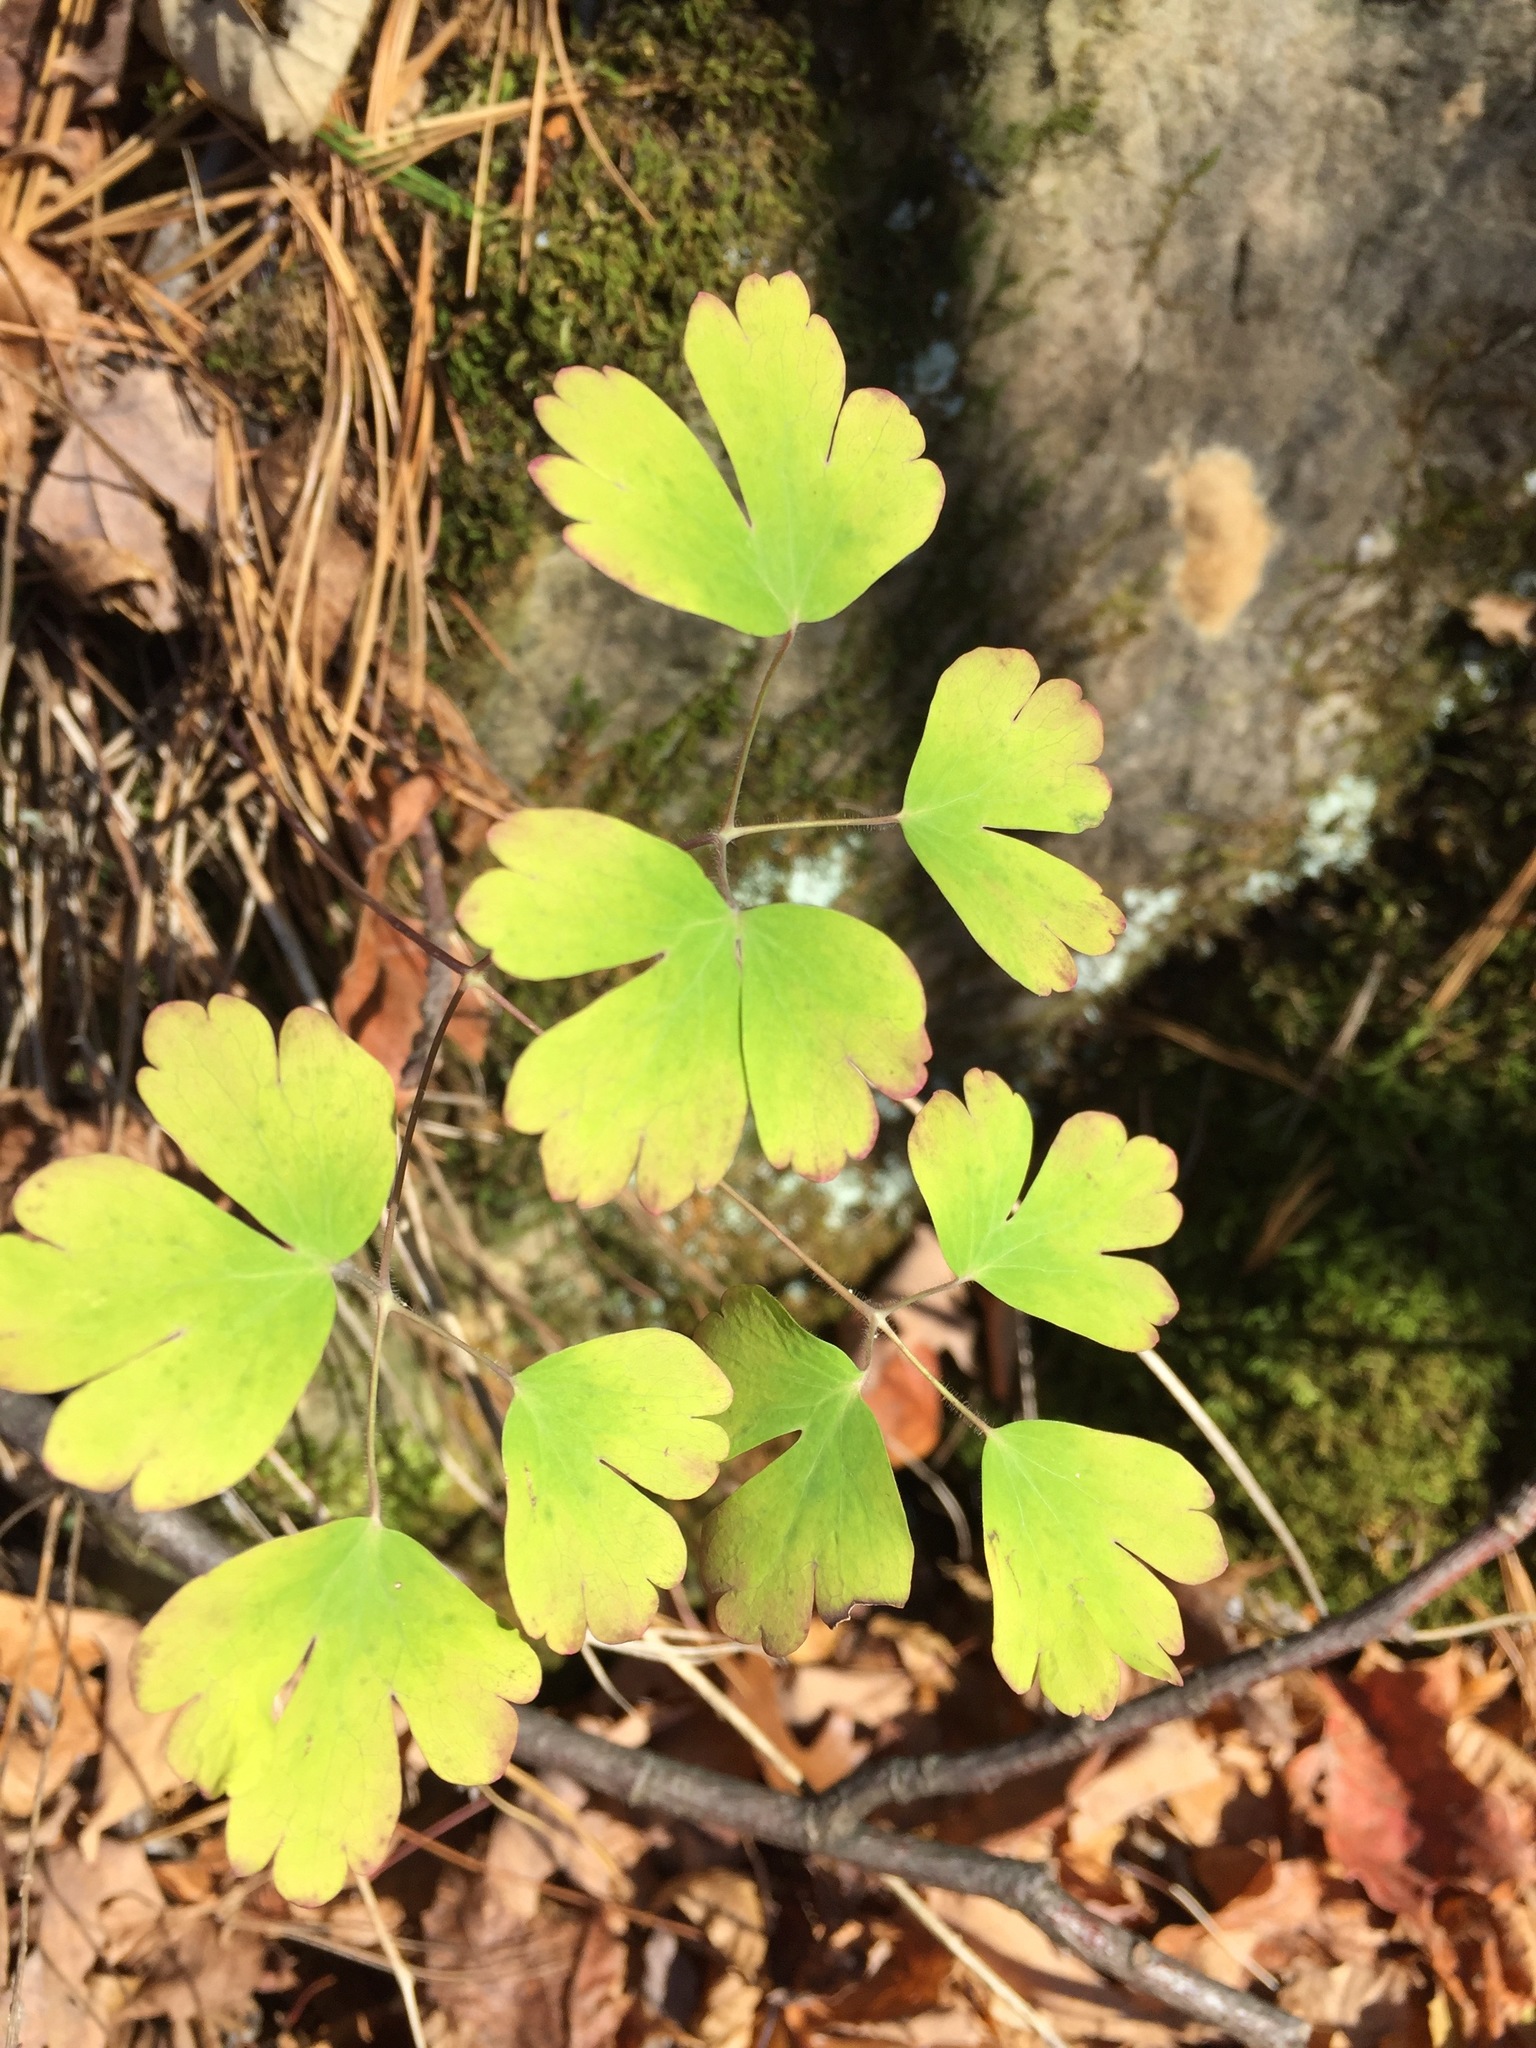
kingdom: Plantae
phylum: Tracheophyta
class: Magnoliopsida
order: Ranunculales
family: Ranunculaceae
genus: Aquilegia
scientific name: Aquilegia canadensis
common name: American columbine
